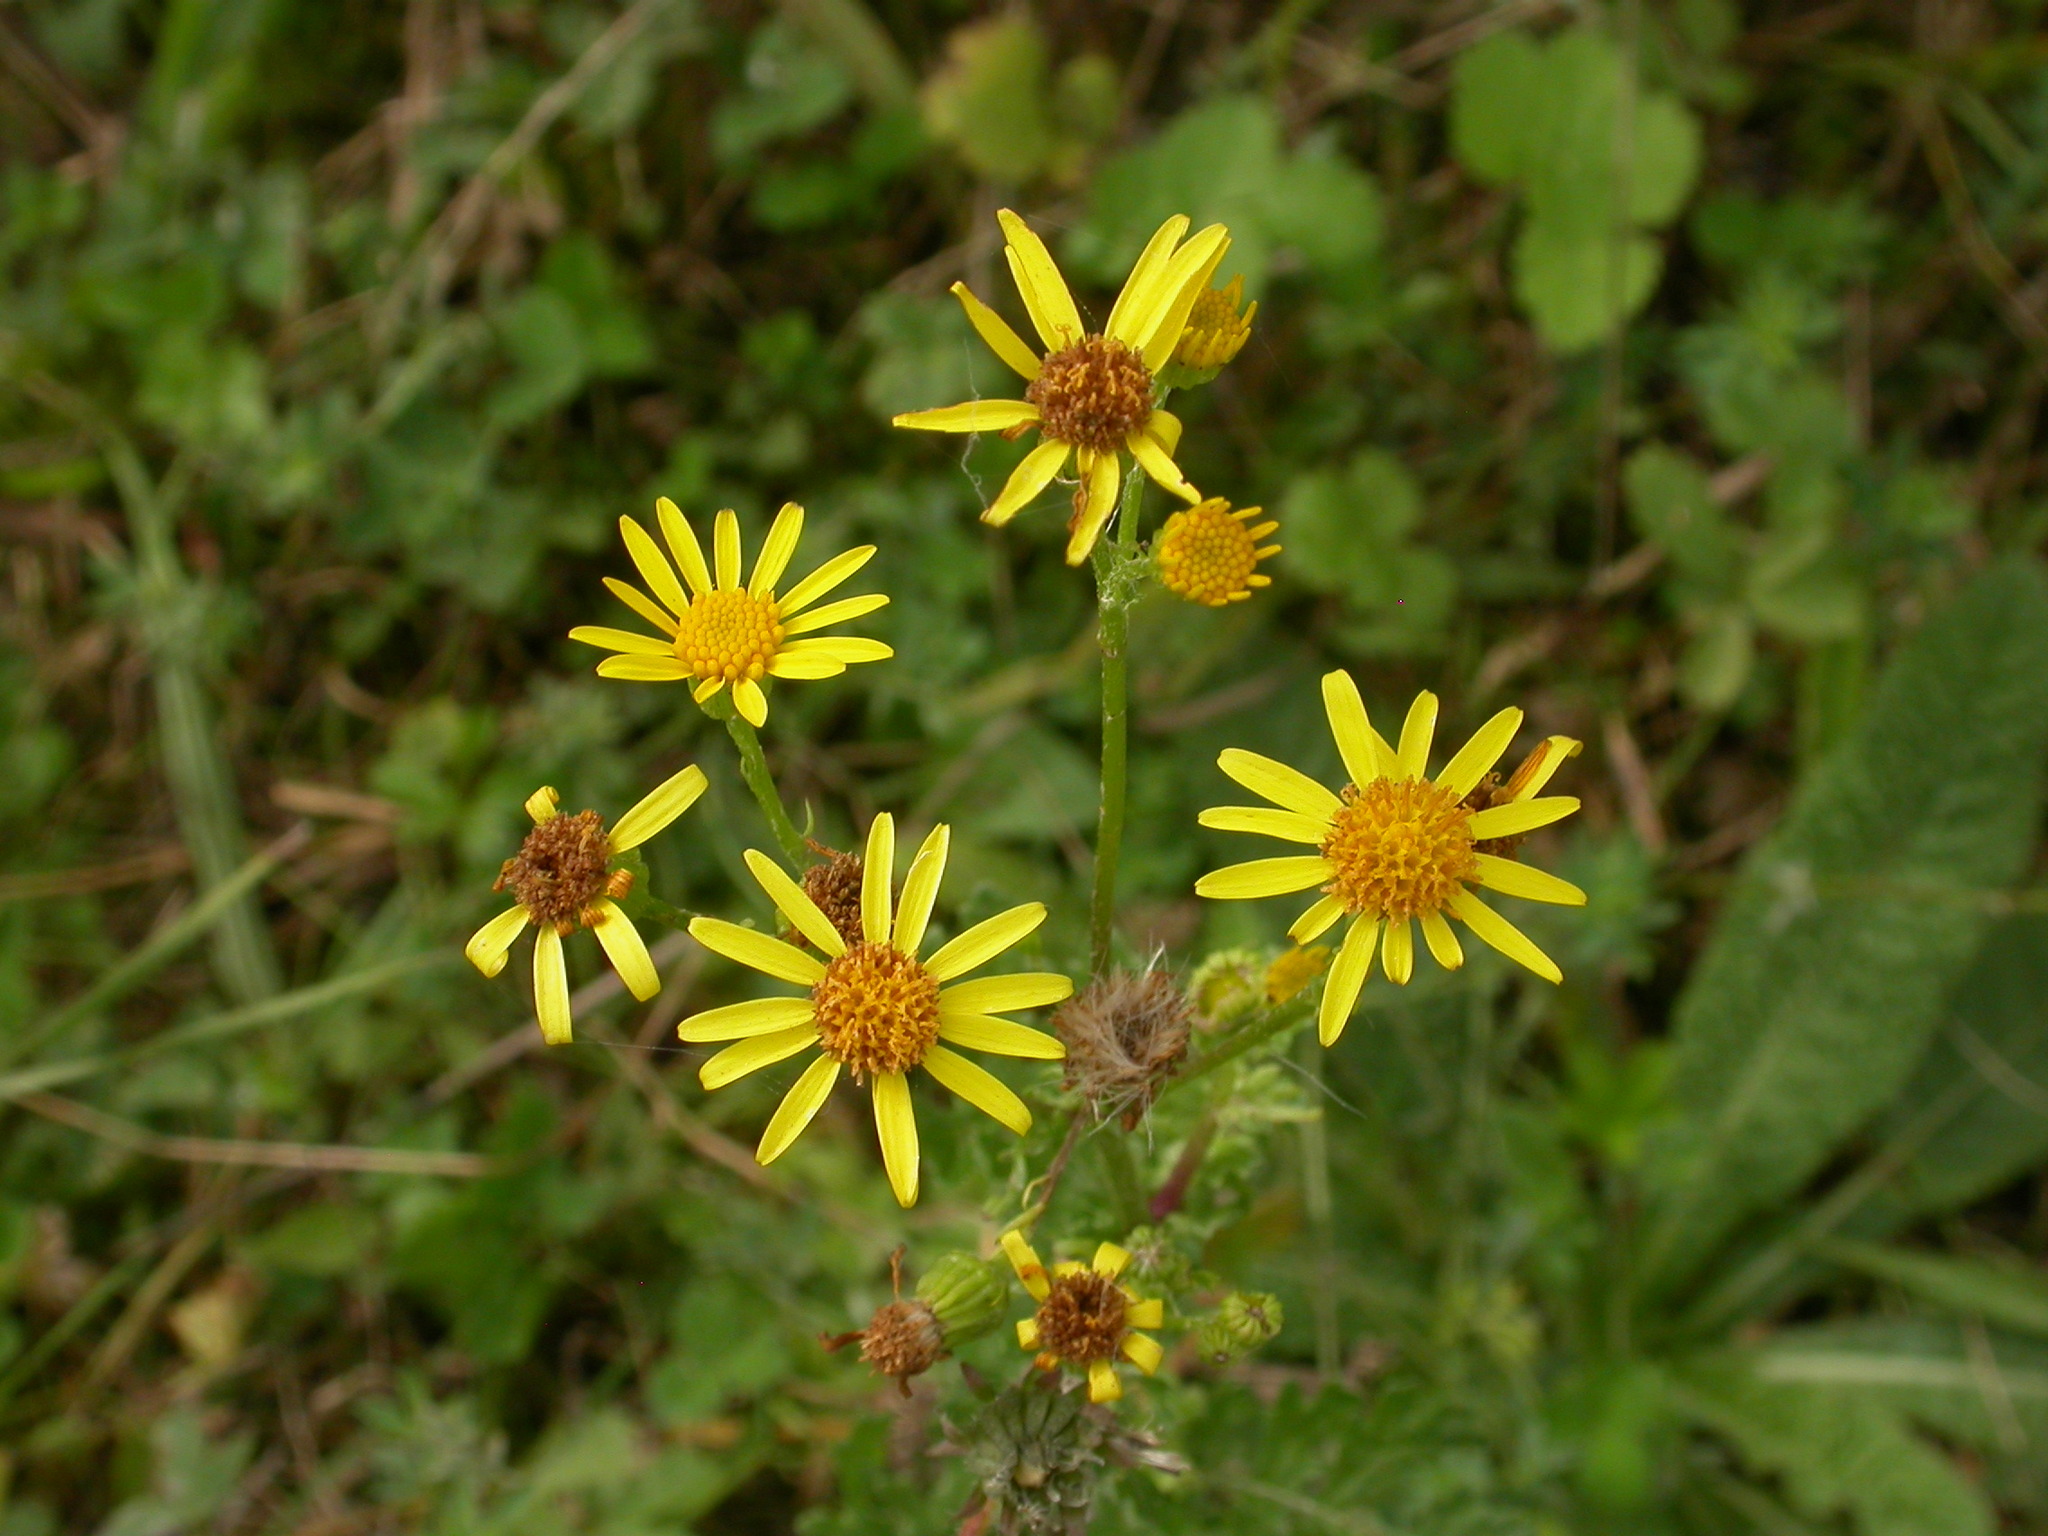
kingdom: Plantae
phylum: Tracheophyta
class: Magnoliopsida
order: Asterales
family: Asteraceae
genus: Jacobaea
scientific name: Jacobaea vulgaris
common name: Stinking willie
